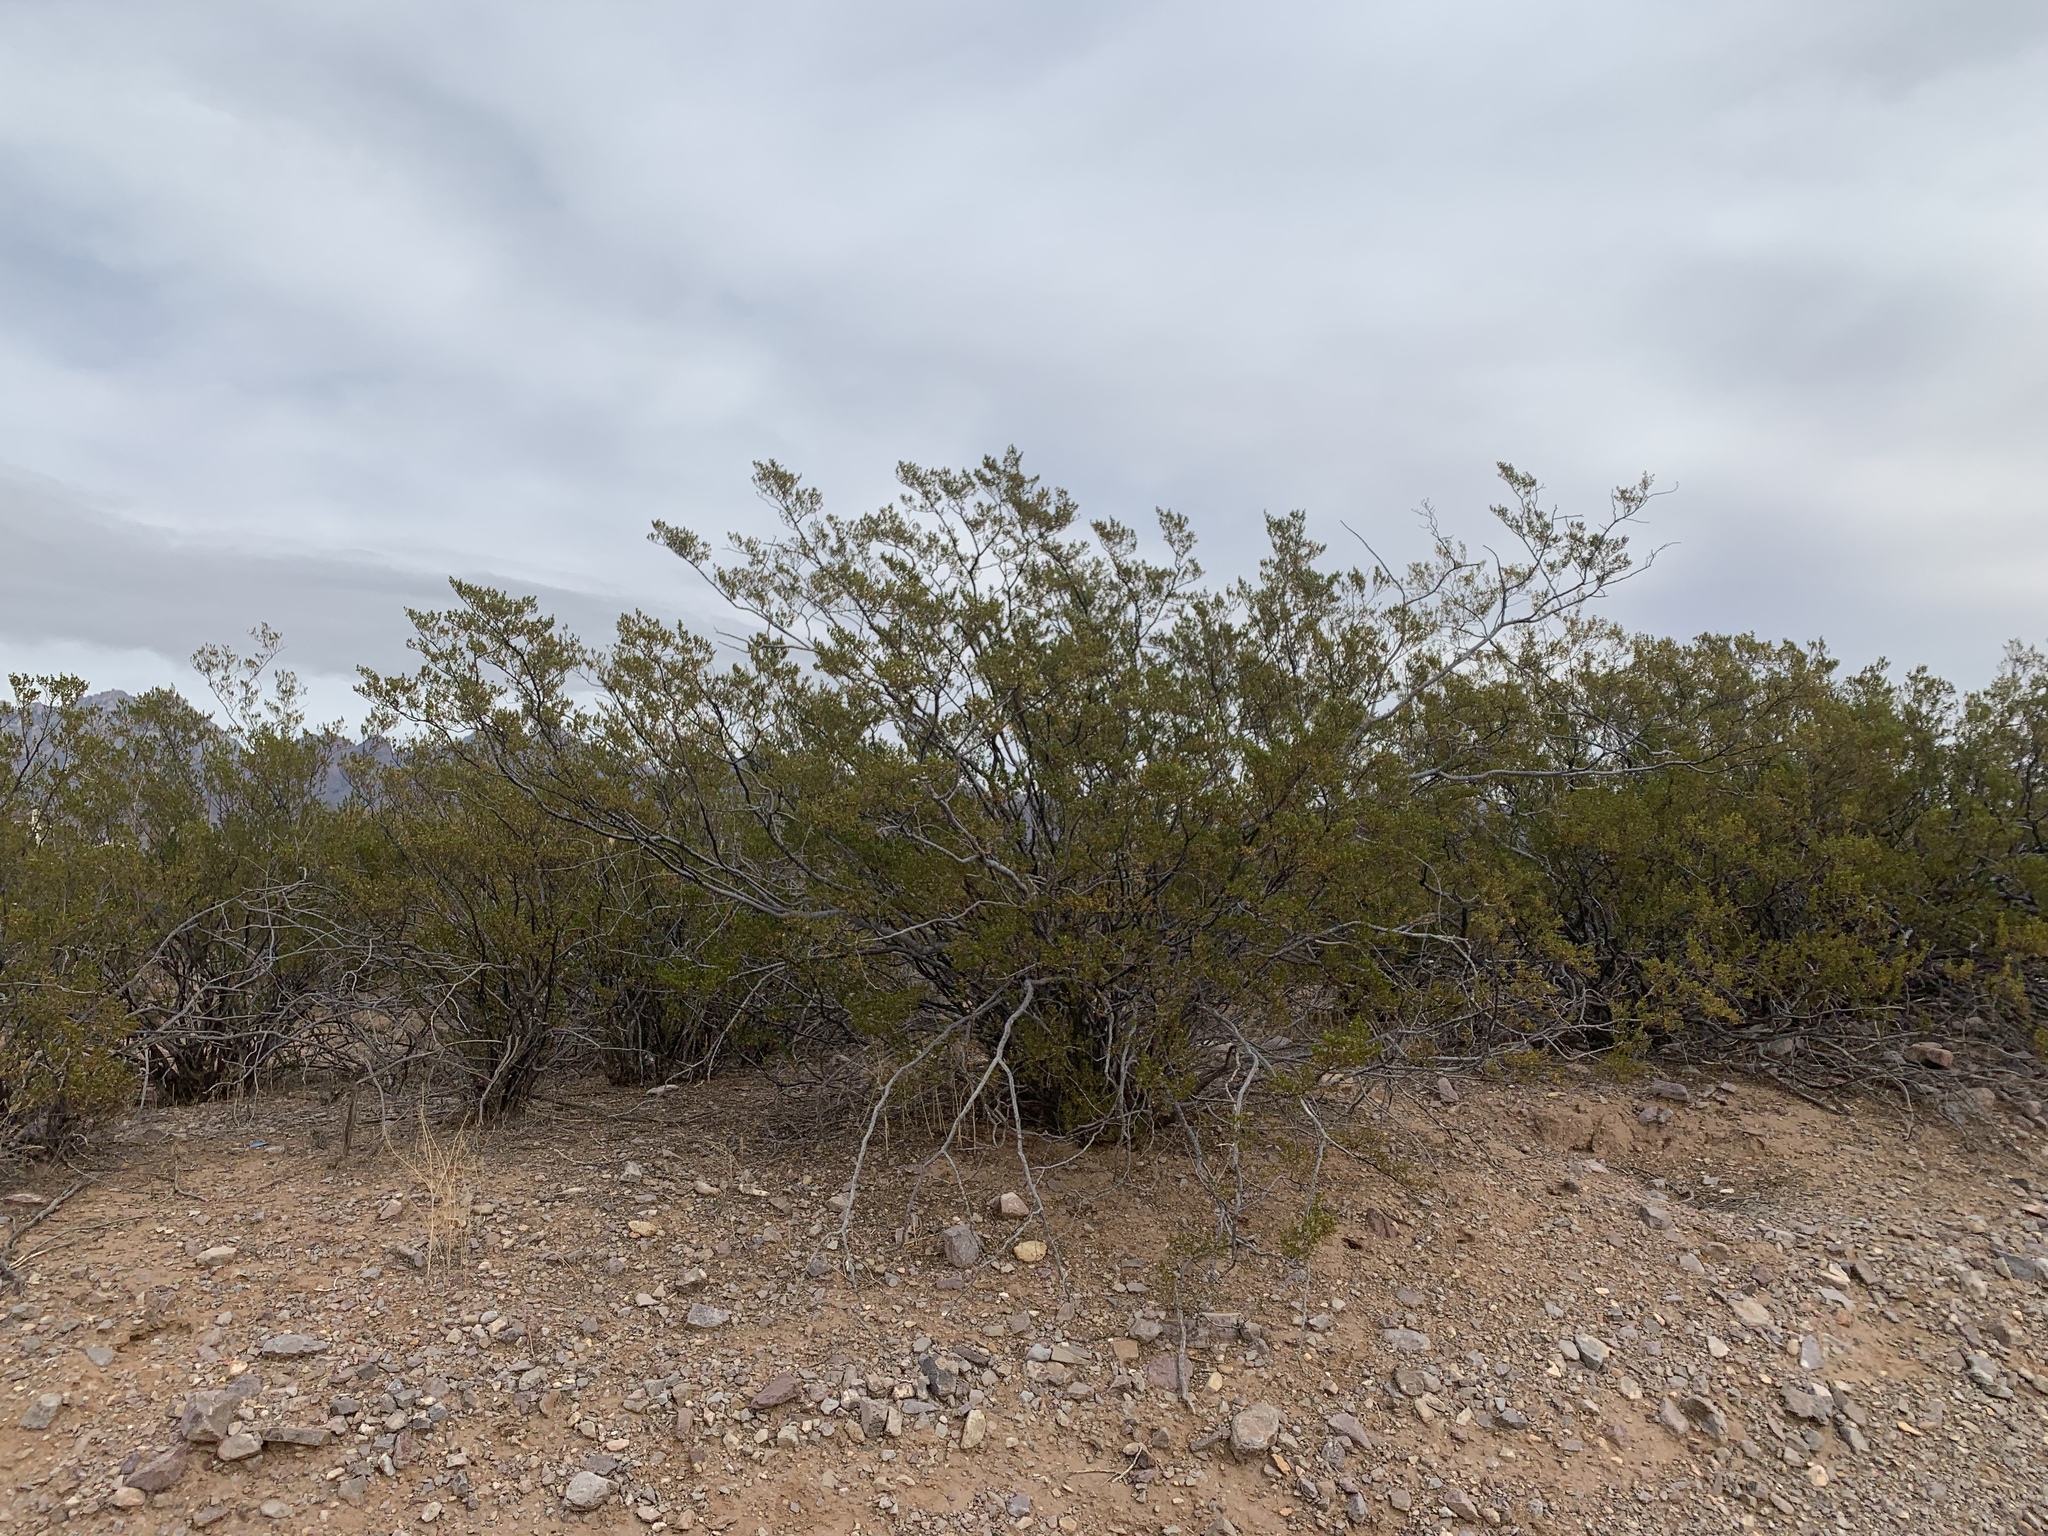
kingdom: Plantae
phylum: Tracheophyta
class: Magnoliopsida
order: Zygophyllales
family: Zygophyllaceae
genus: Larrea
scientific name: Larrea tridentata
